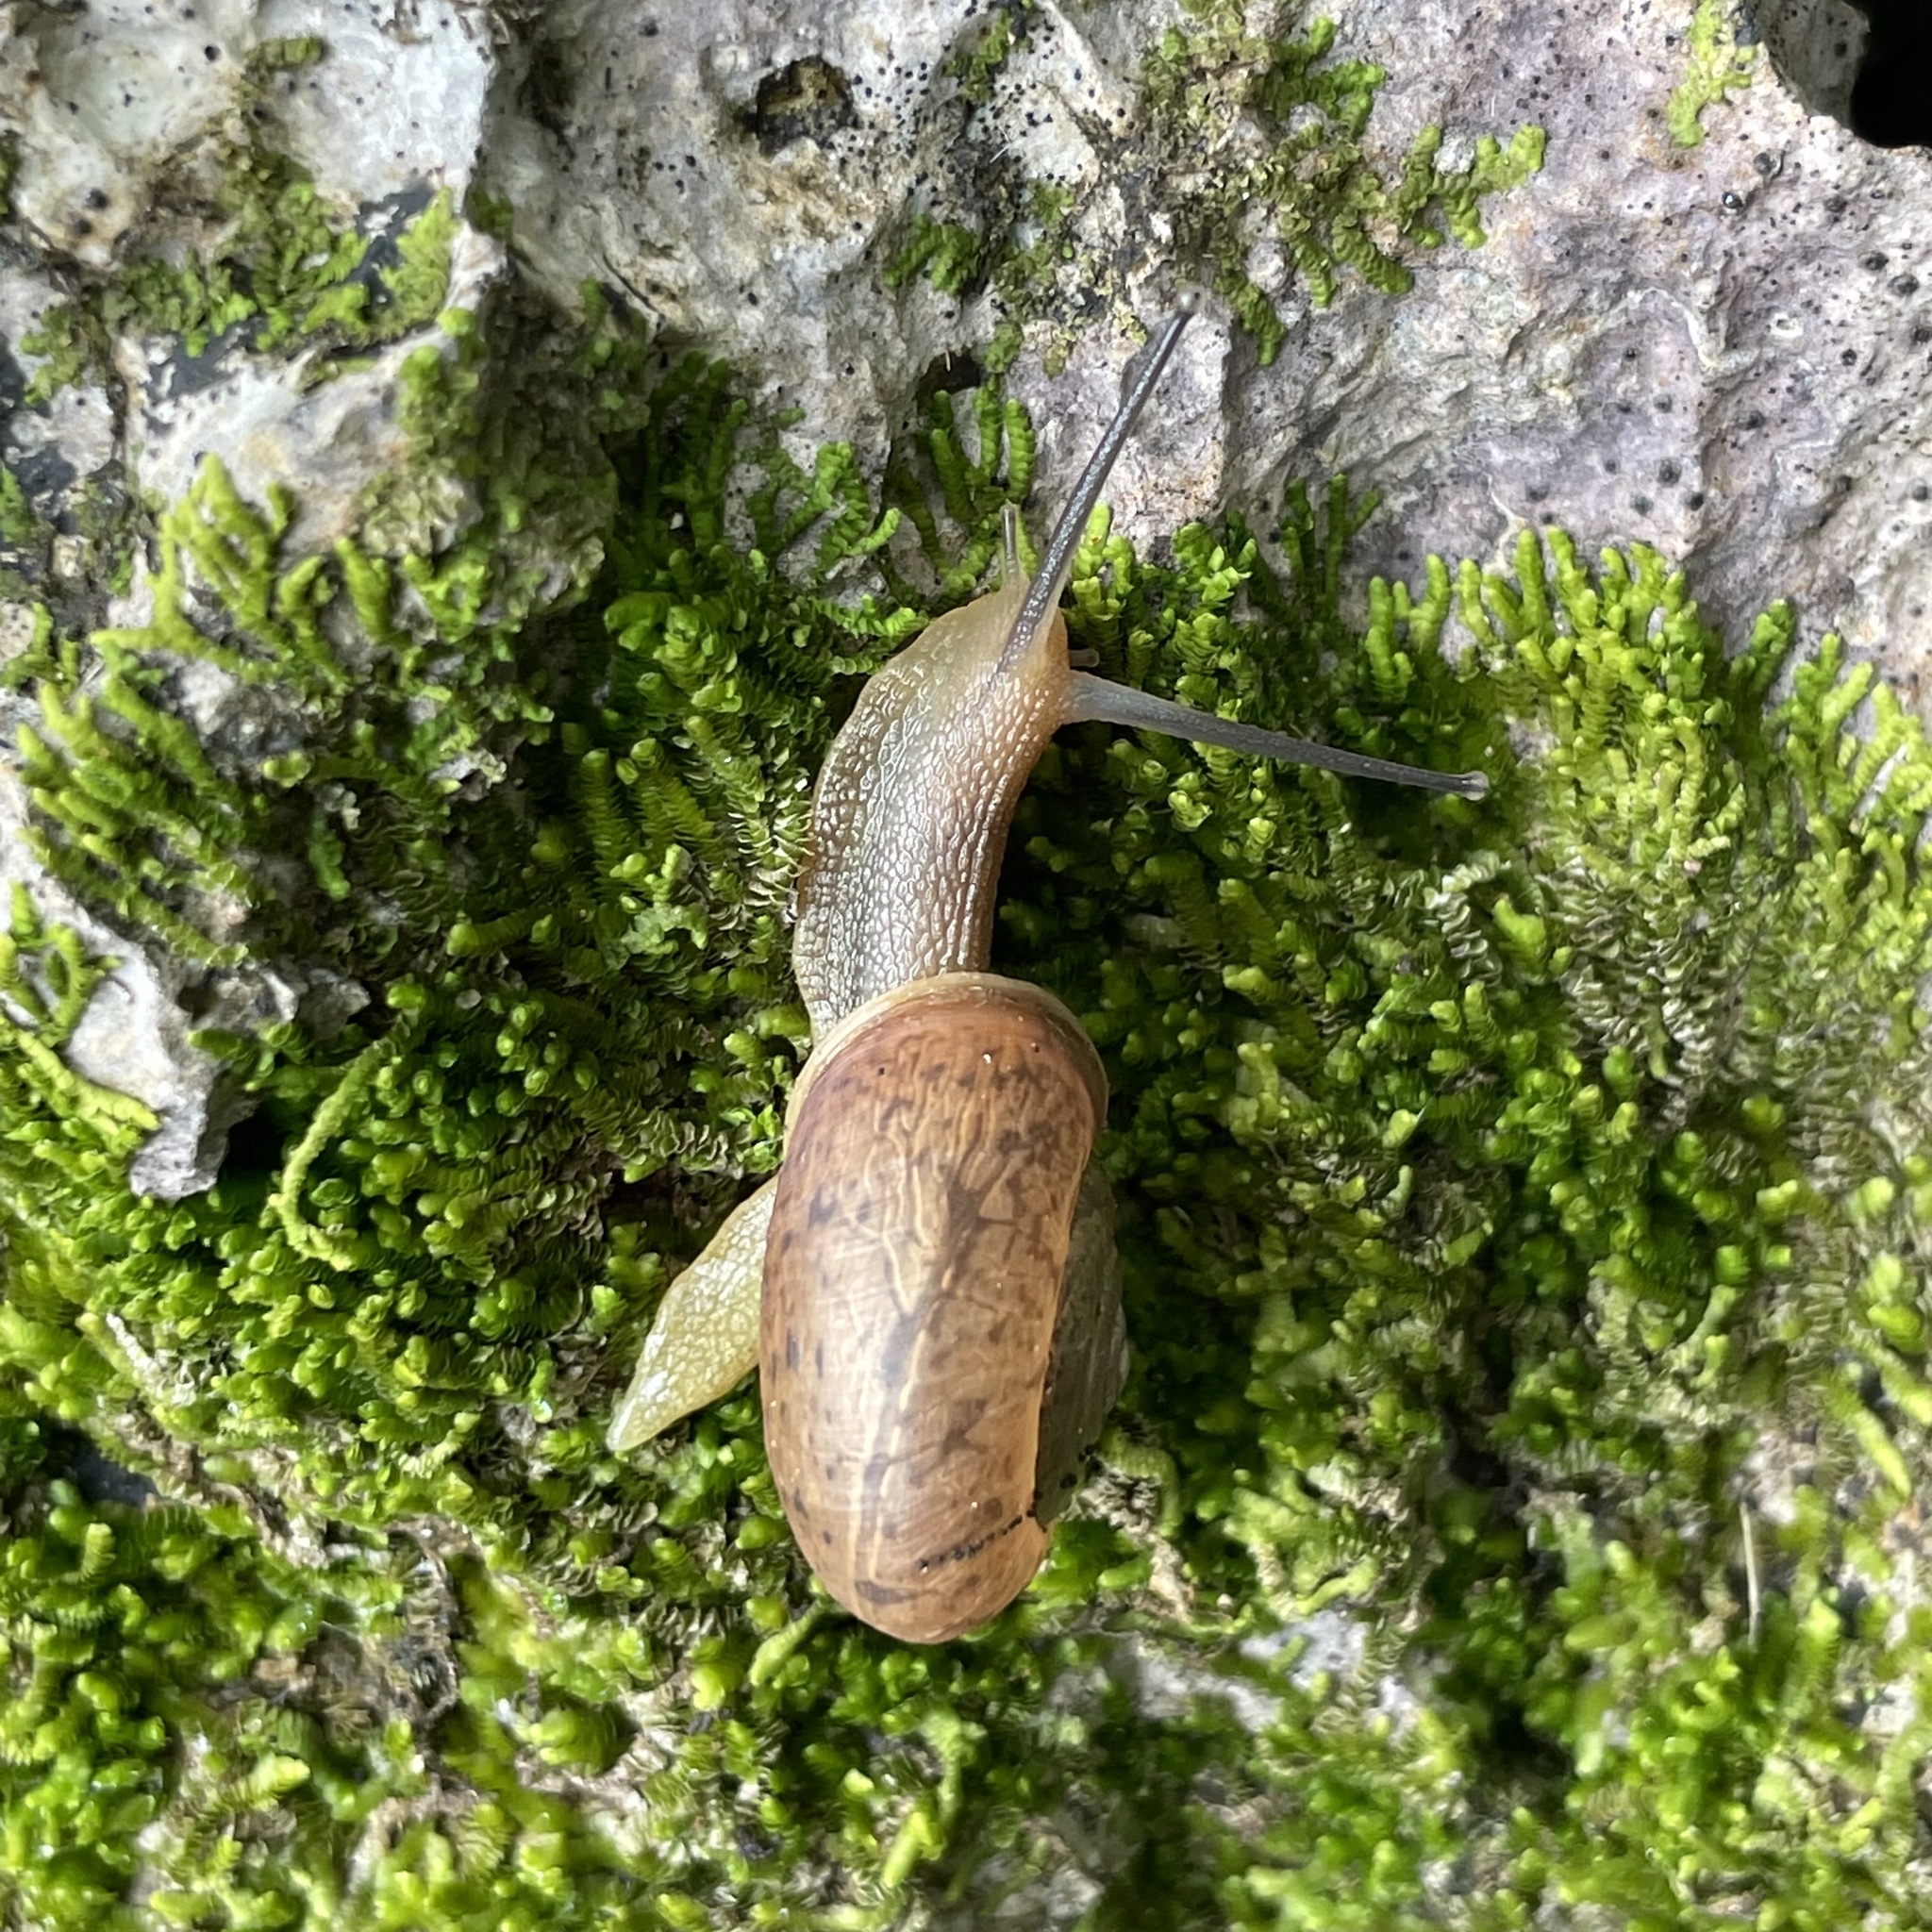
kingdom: Animalia
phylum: Mollusca
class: Gastropoda
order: Stylommatophora
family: Camaenidae
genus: Bradybaena
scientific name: Bradybaena circulus
